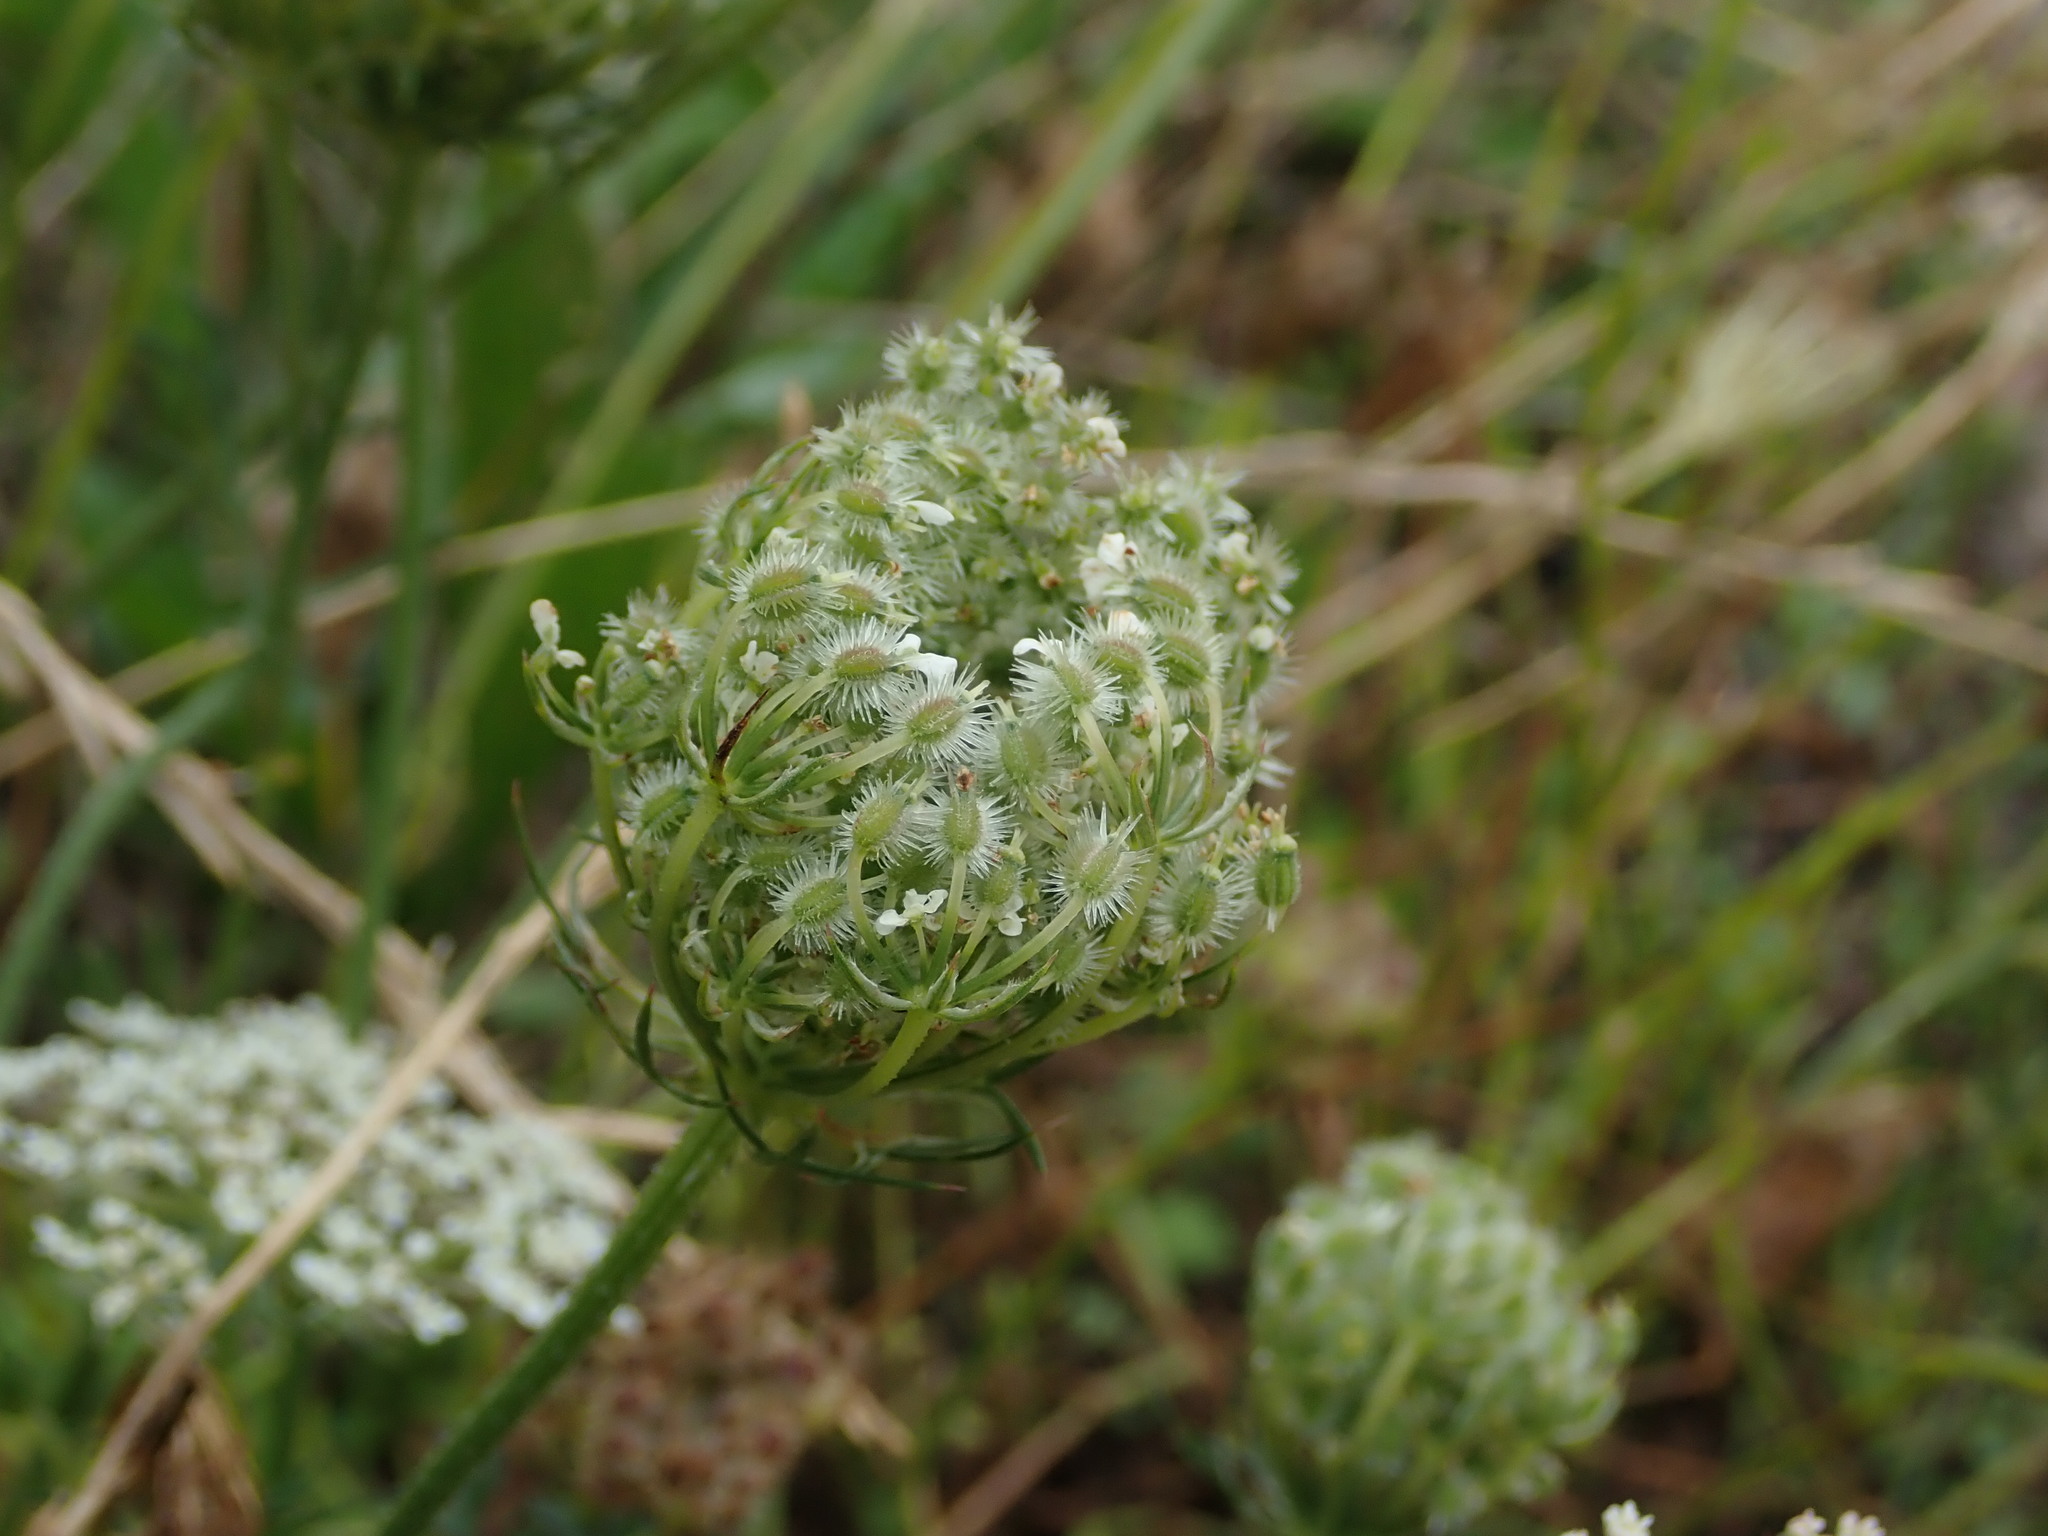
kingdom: Plantae
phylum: Tracheophyta
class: Magnoliopsida
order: Apiales
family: Apiaceae
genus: Daucus
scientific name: Daucus carota
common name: Wild carrot
